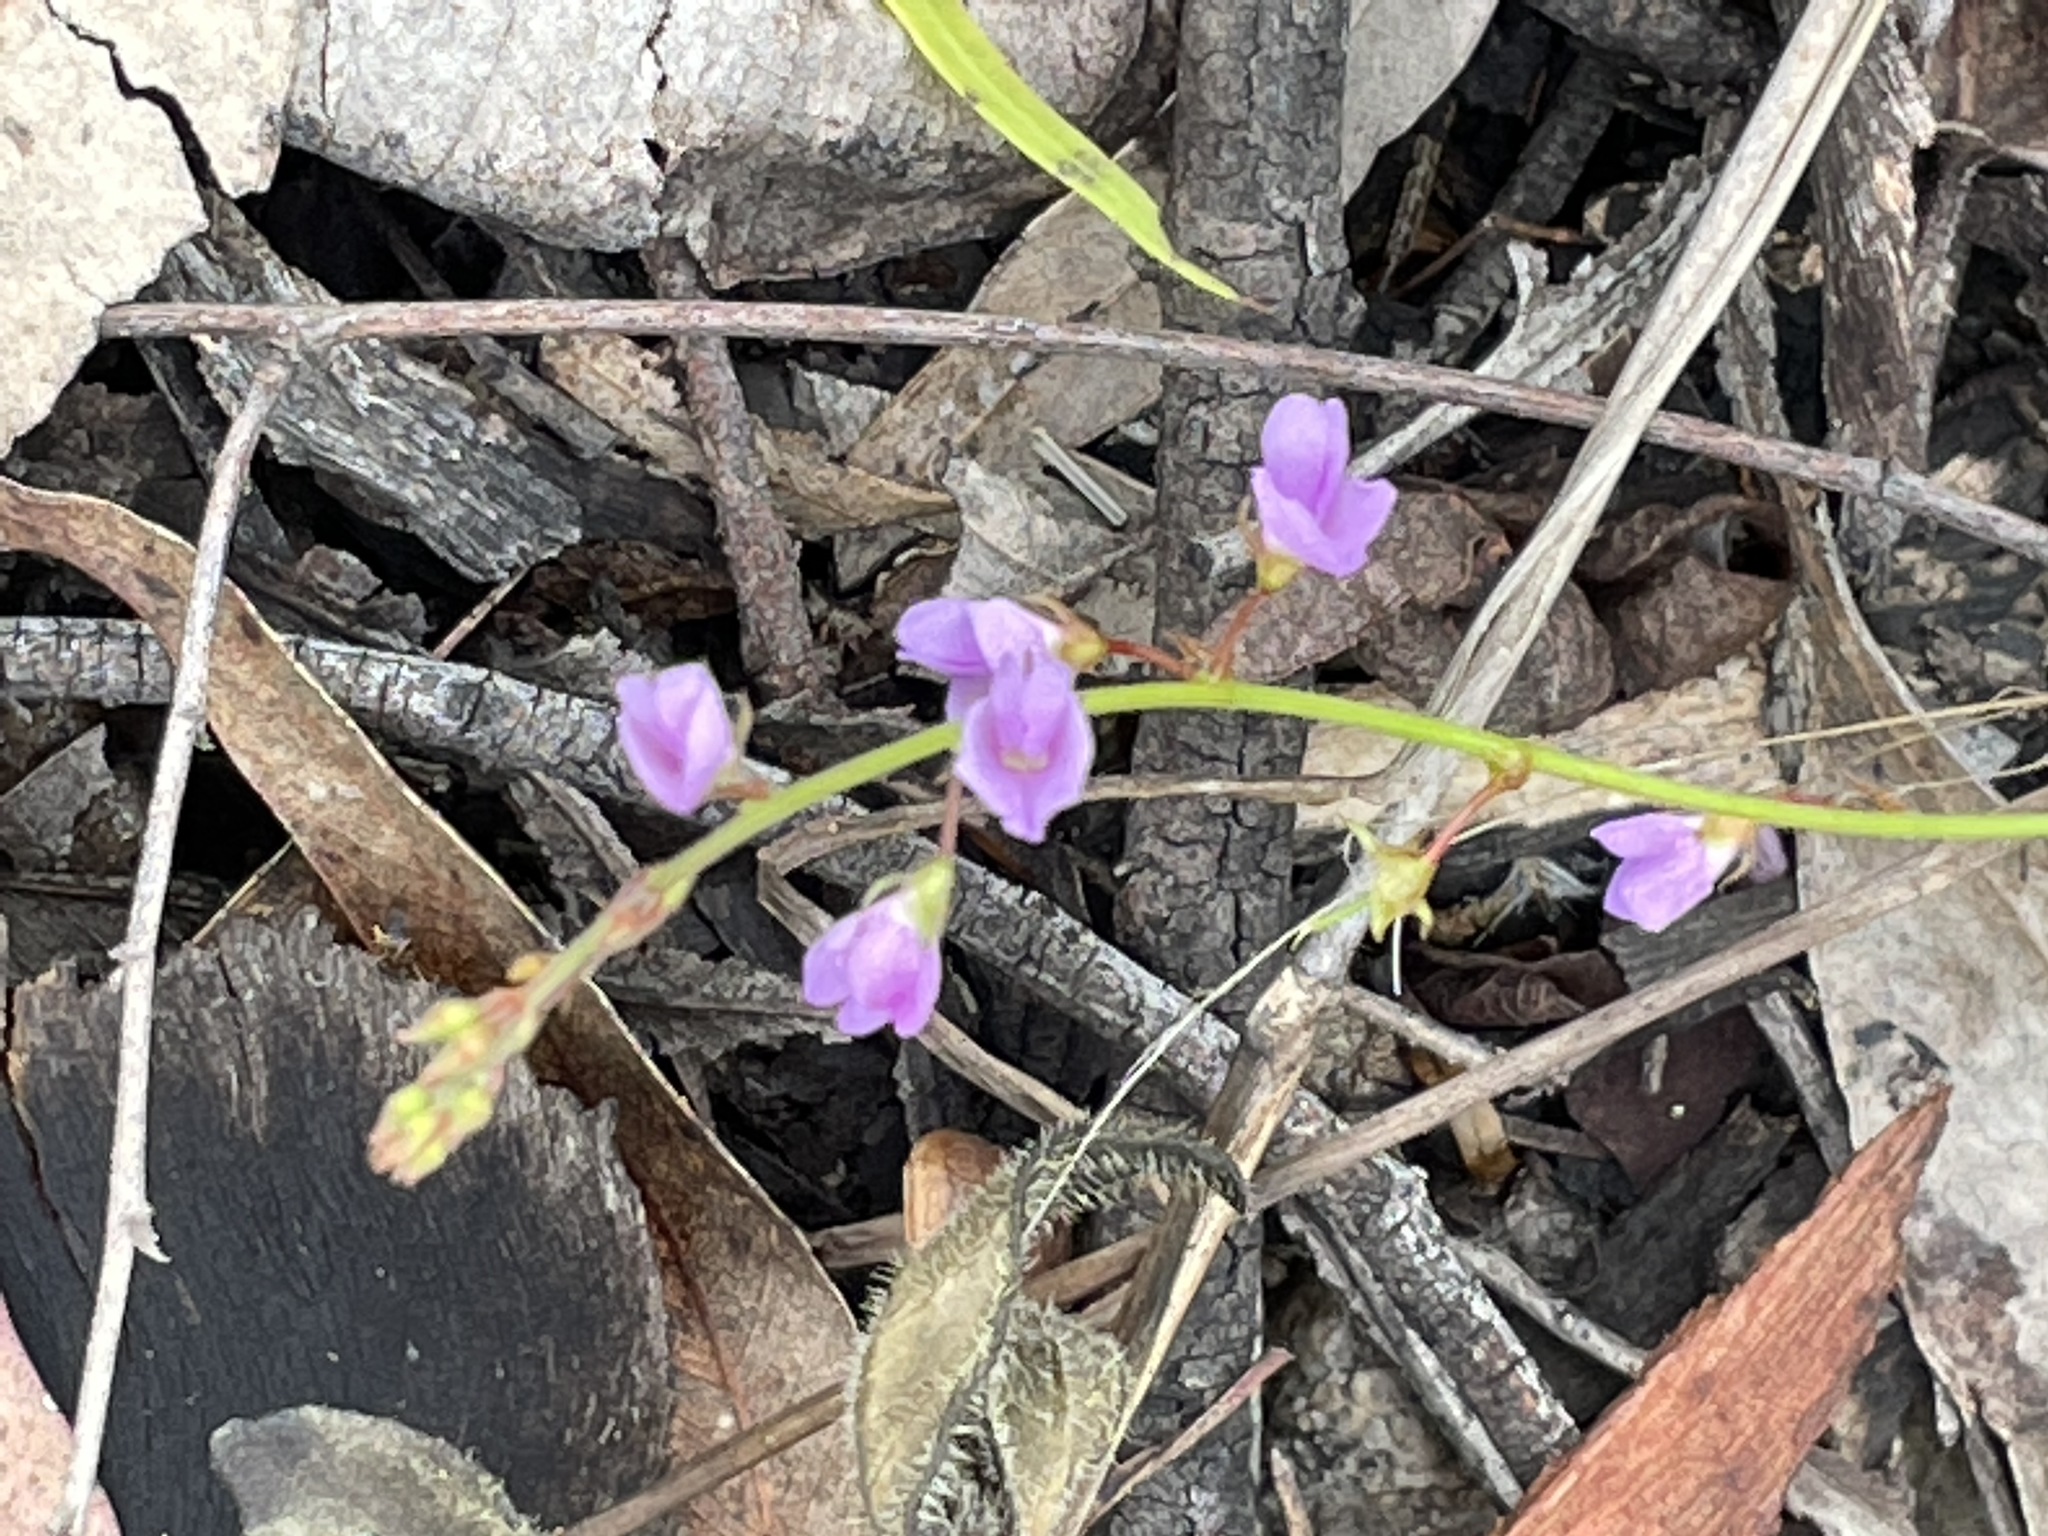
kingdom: Plantae
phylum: Tracheophyta
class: Magnoliopsida
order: Fabales
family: Fabaceae
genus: Maekawaea
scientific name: Maekawaea rhytidophylla
